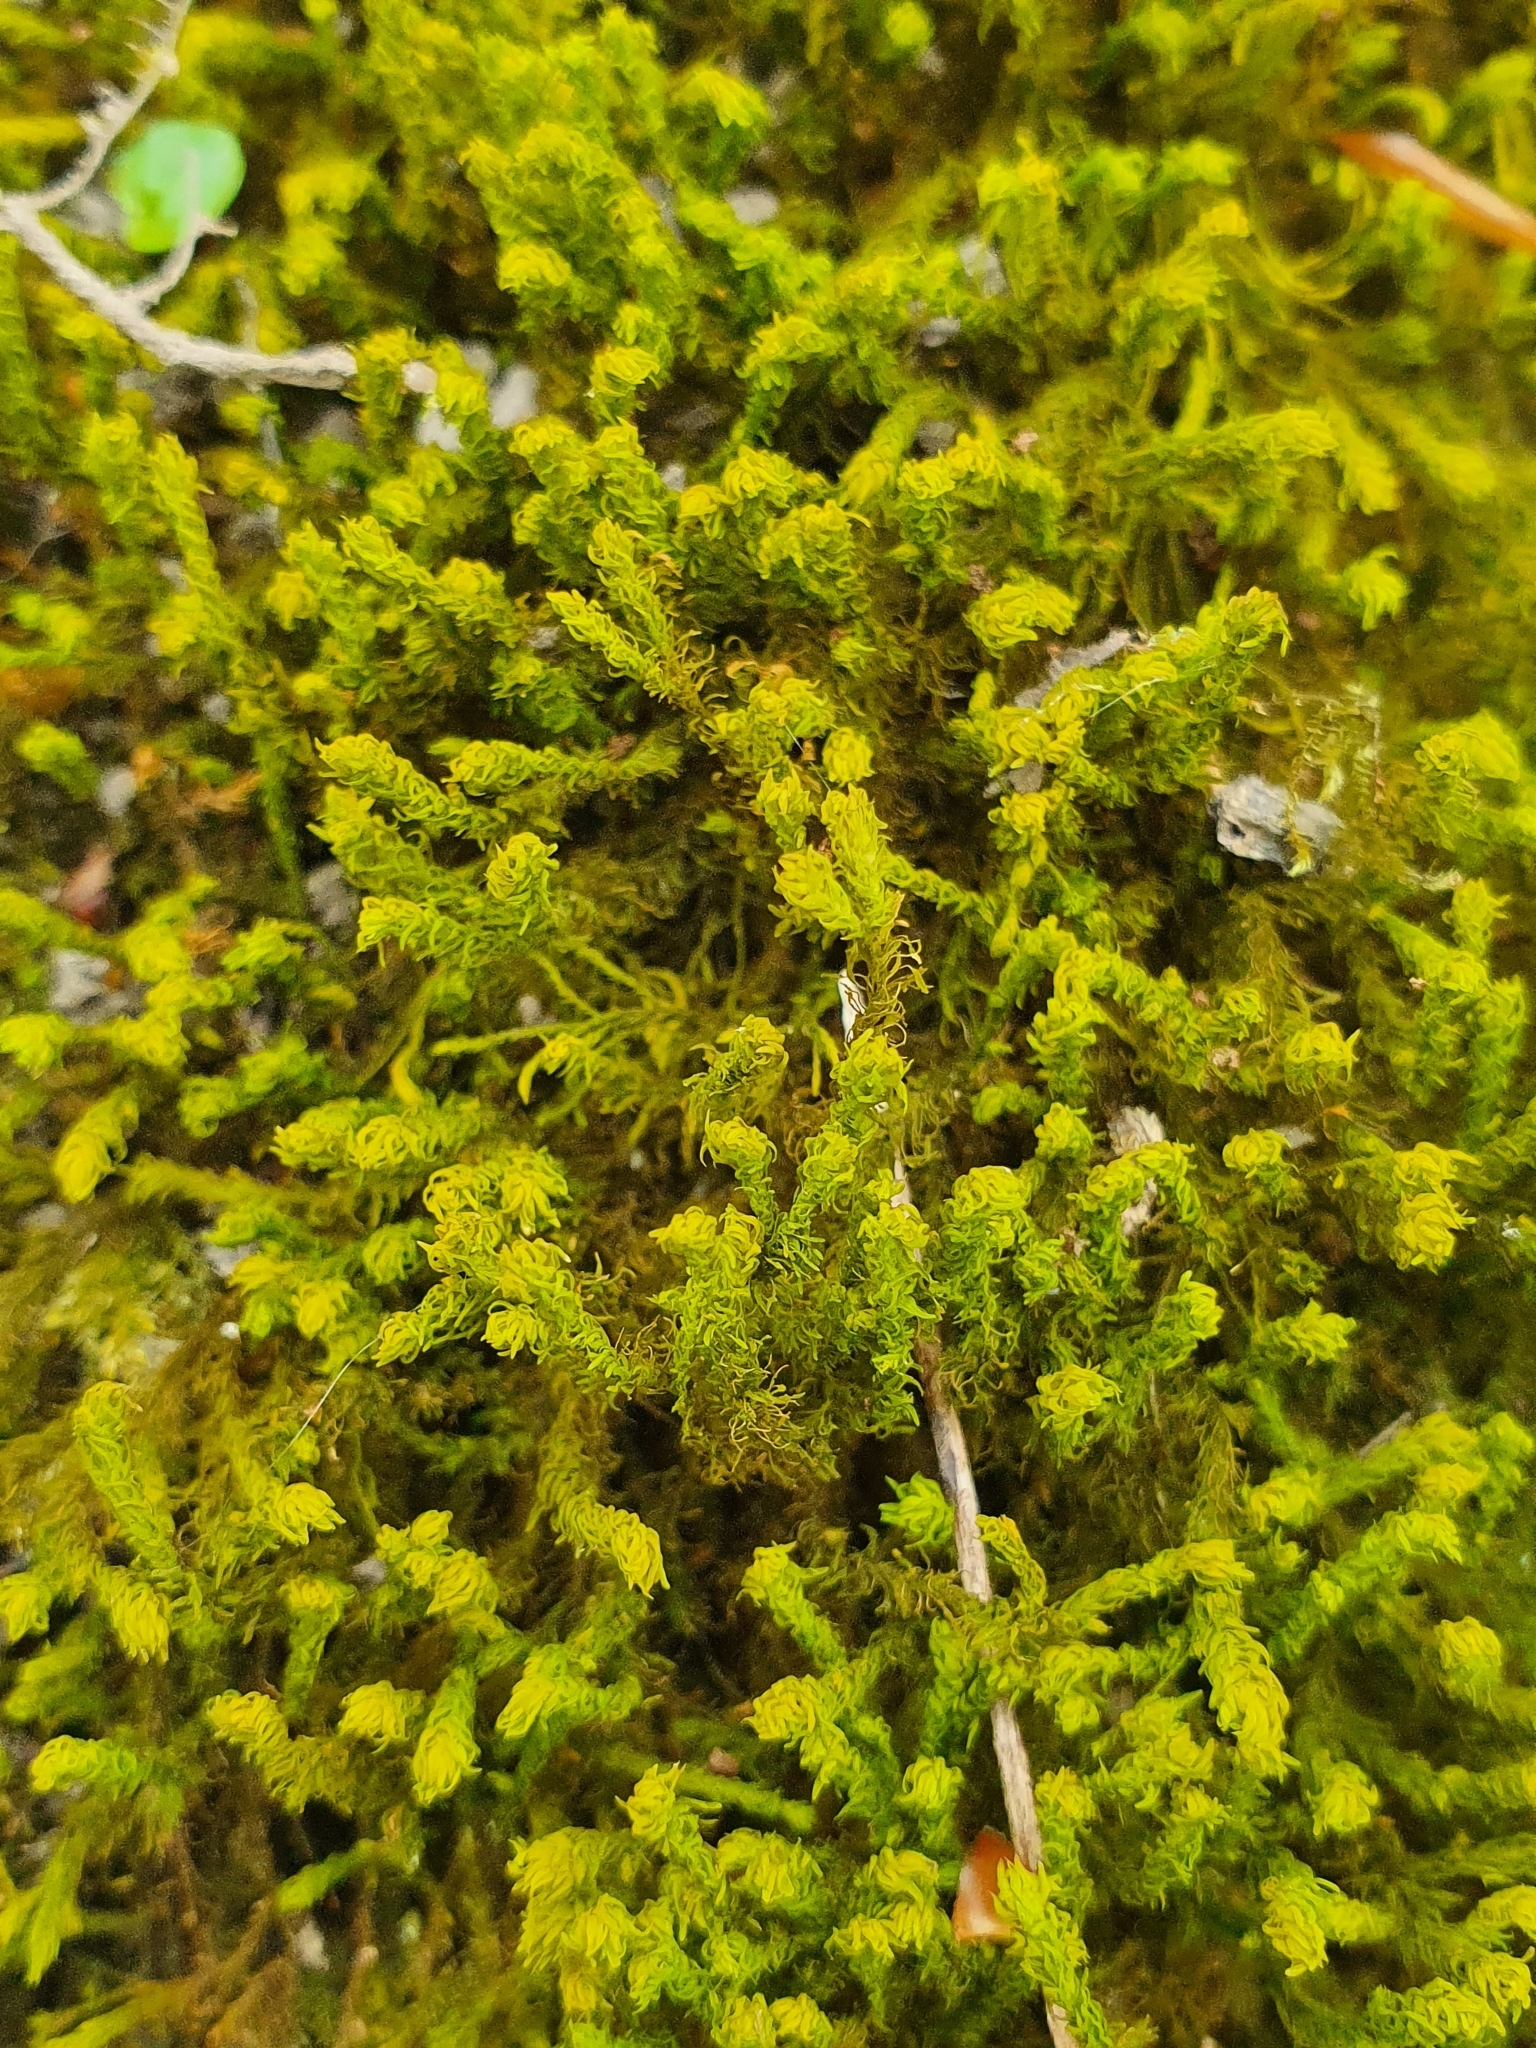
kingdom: Plantae
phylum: Bryophyta
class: Bryopsida
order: Hypnales
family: Anomodontaceae
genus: Anomodon
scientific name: Anomodon viticulosus
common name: Tall anomodon
